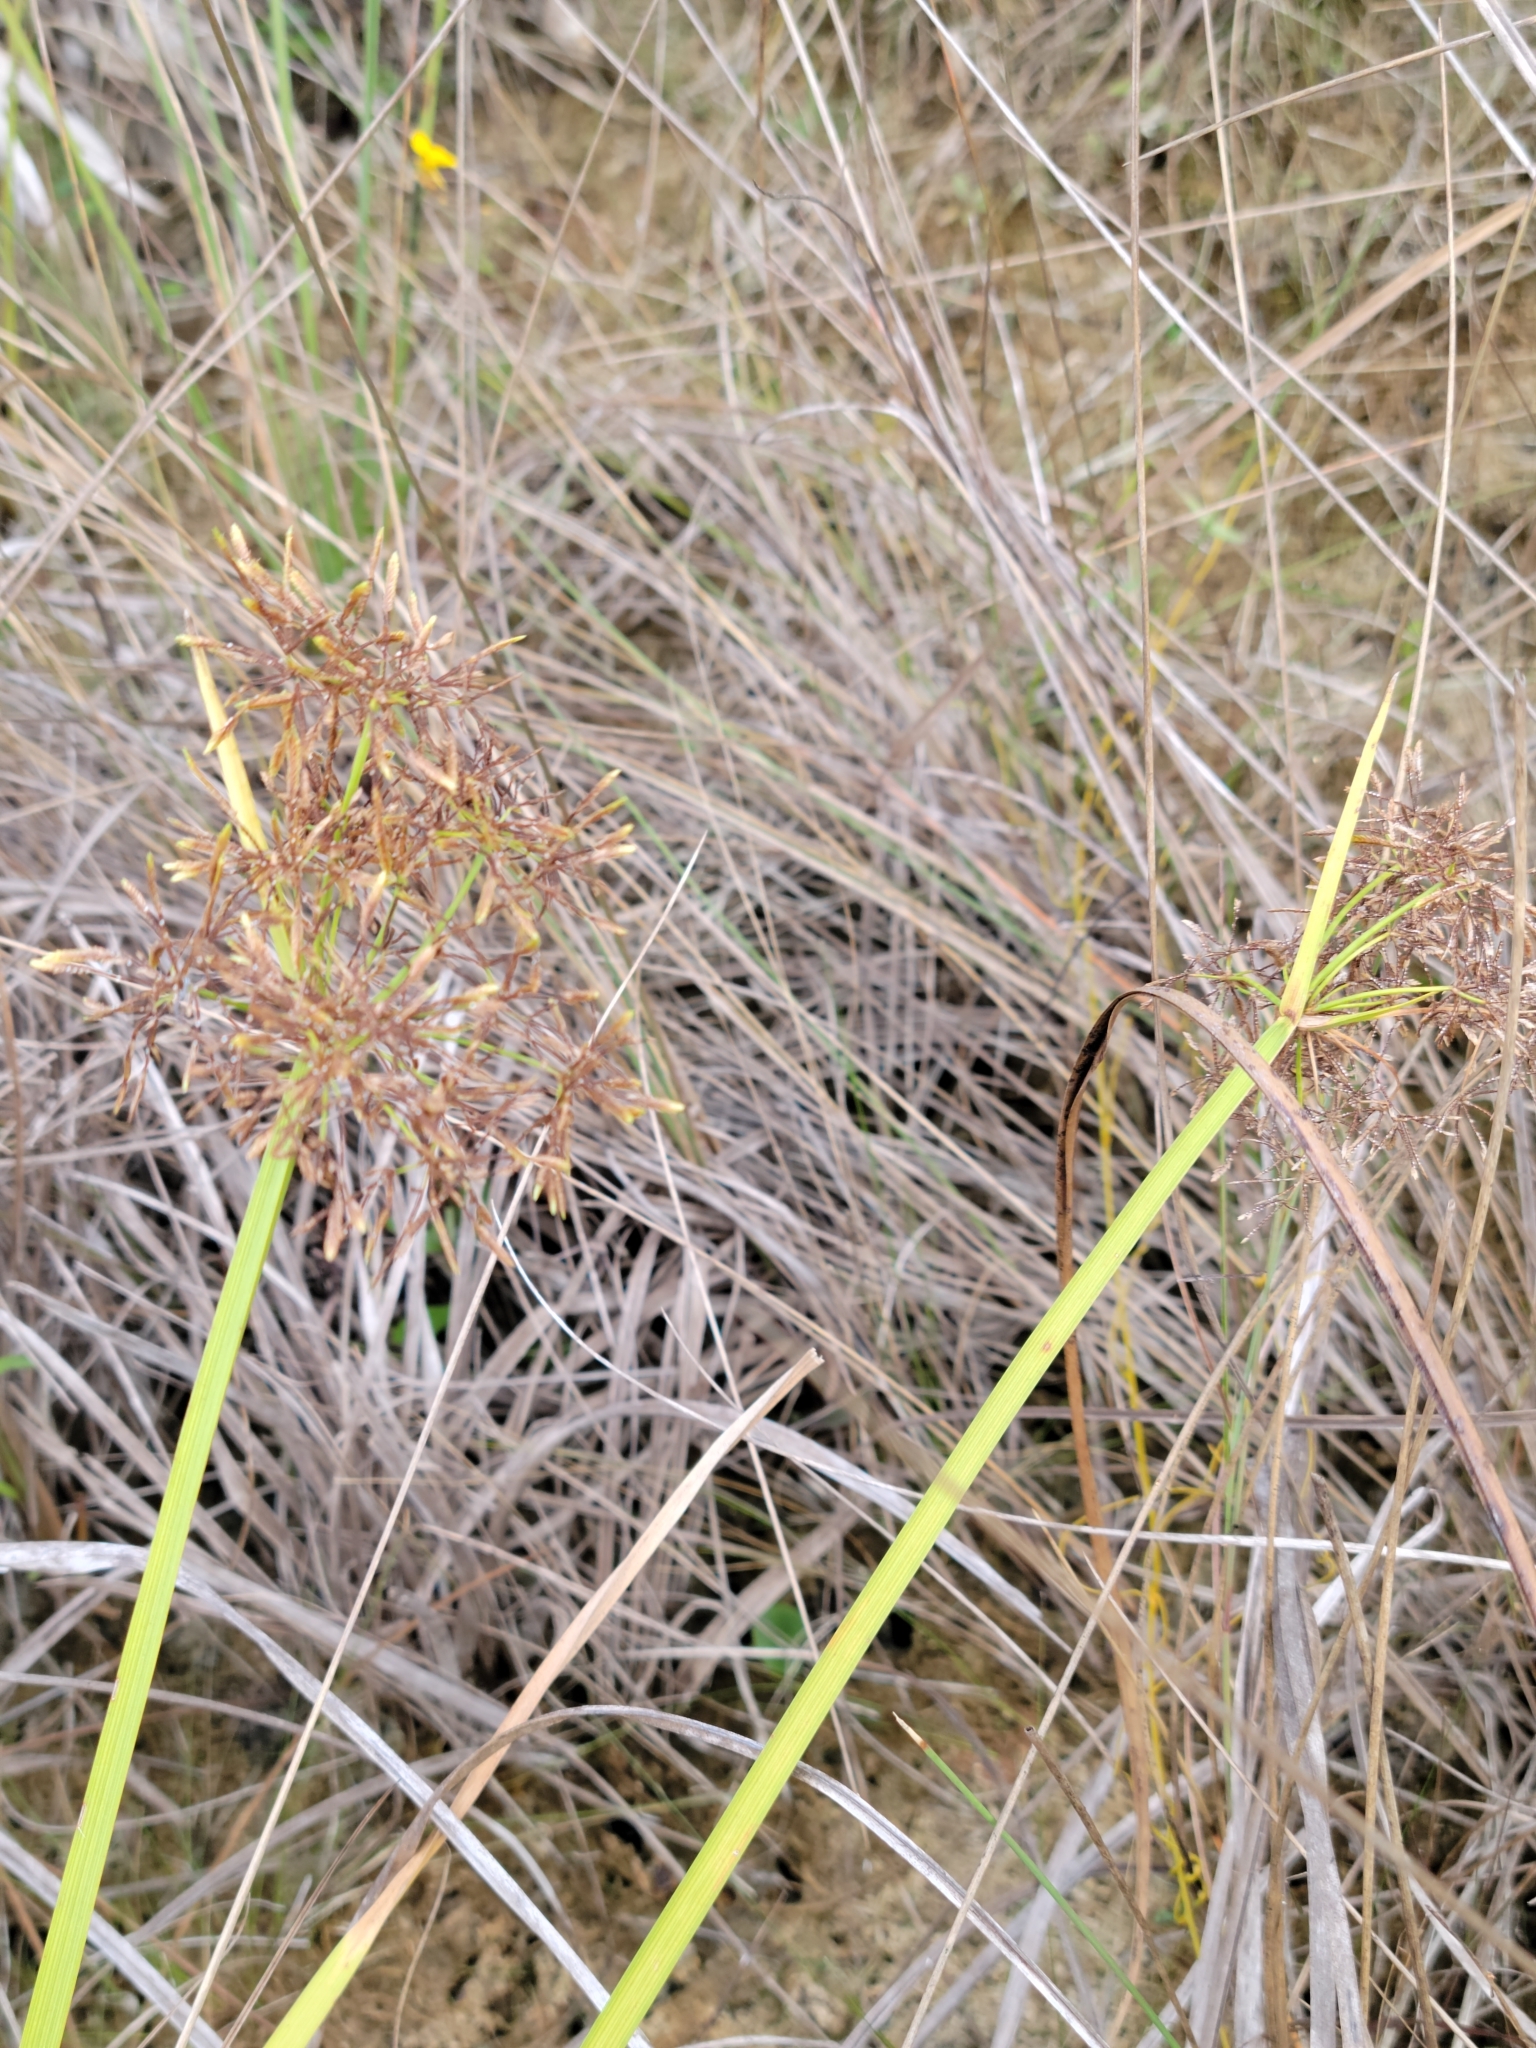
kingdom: Plantae
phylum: Tracheophyta
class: Liliopsida
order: Poales
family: Cyperaceae
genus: Cyperus
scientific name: Cyperus haspan
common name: Haspan flatsedge
